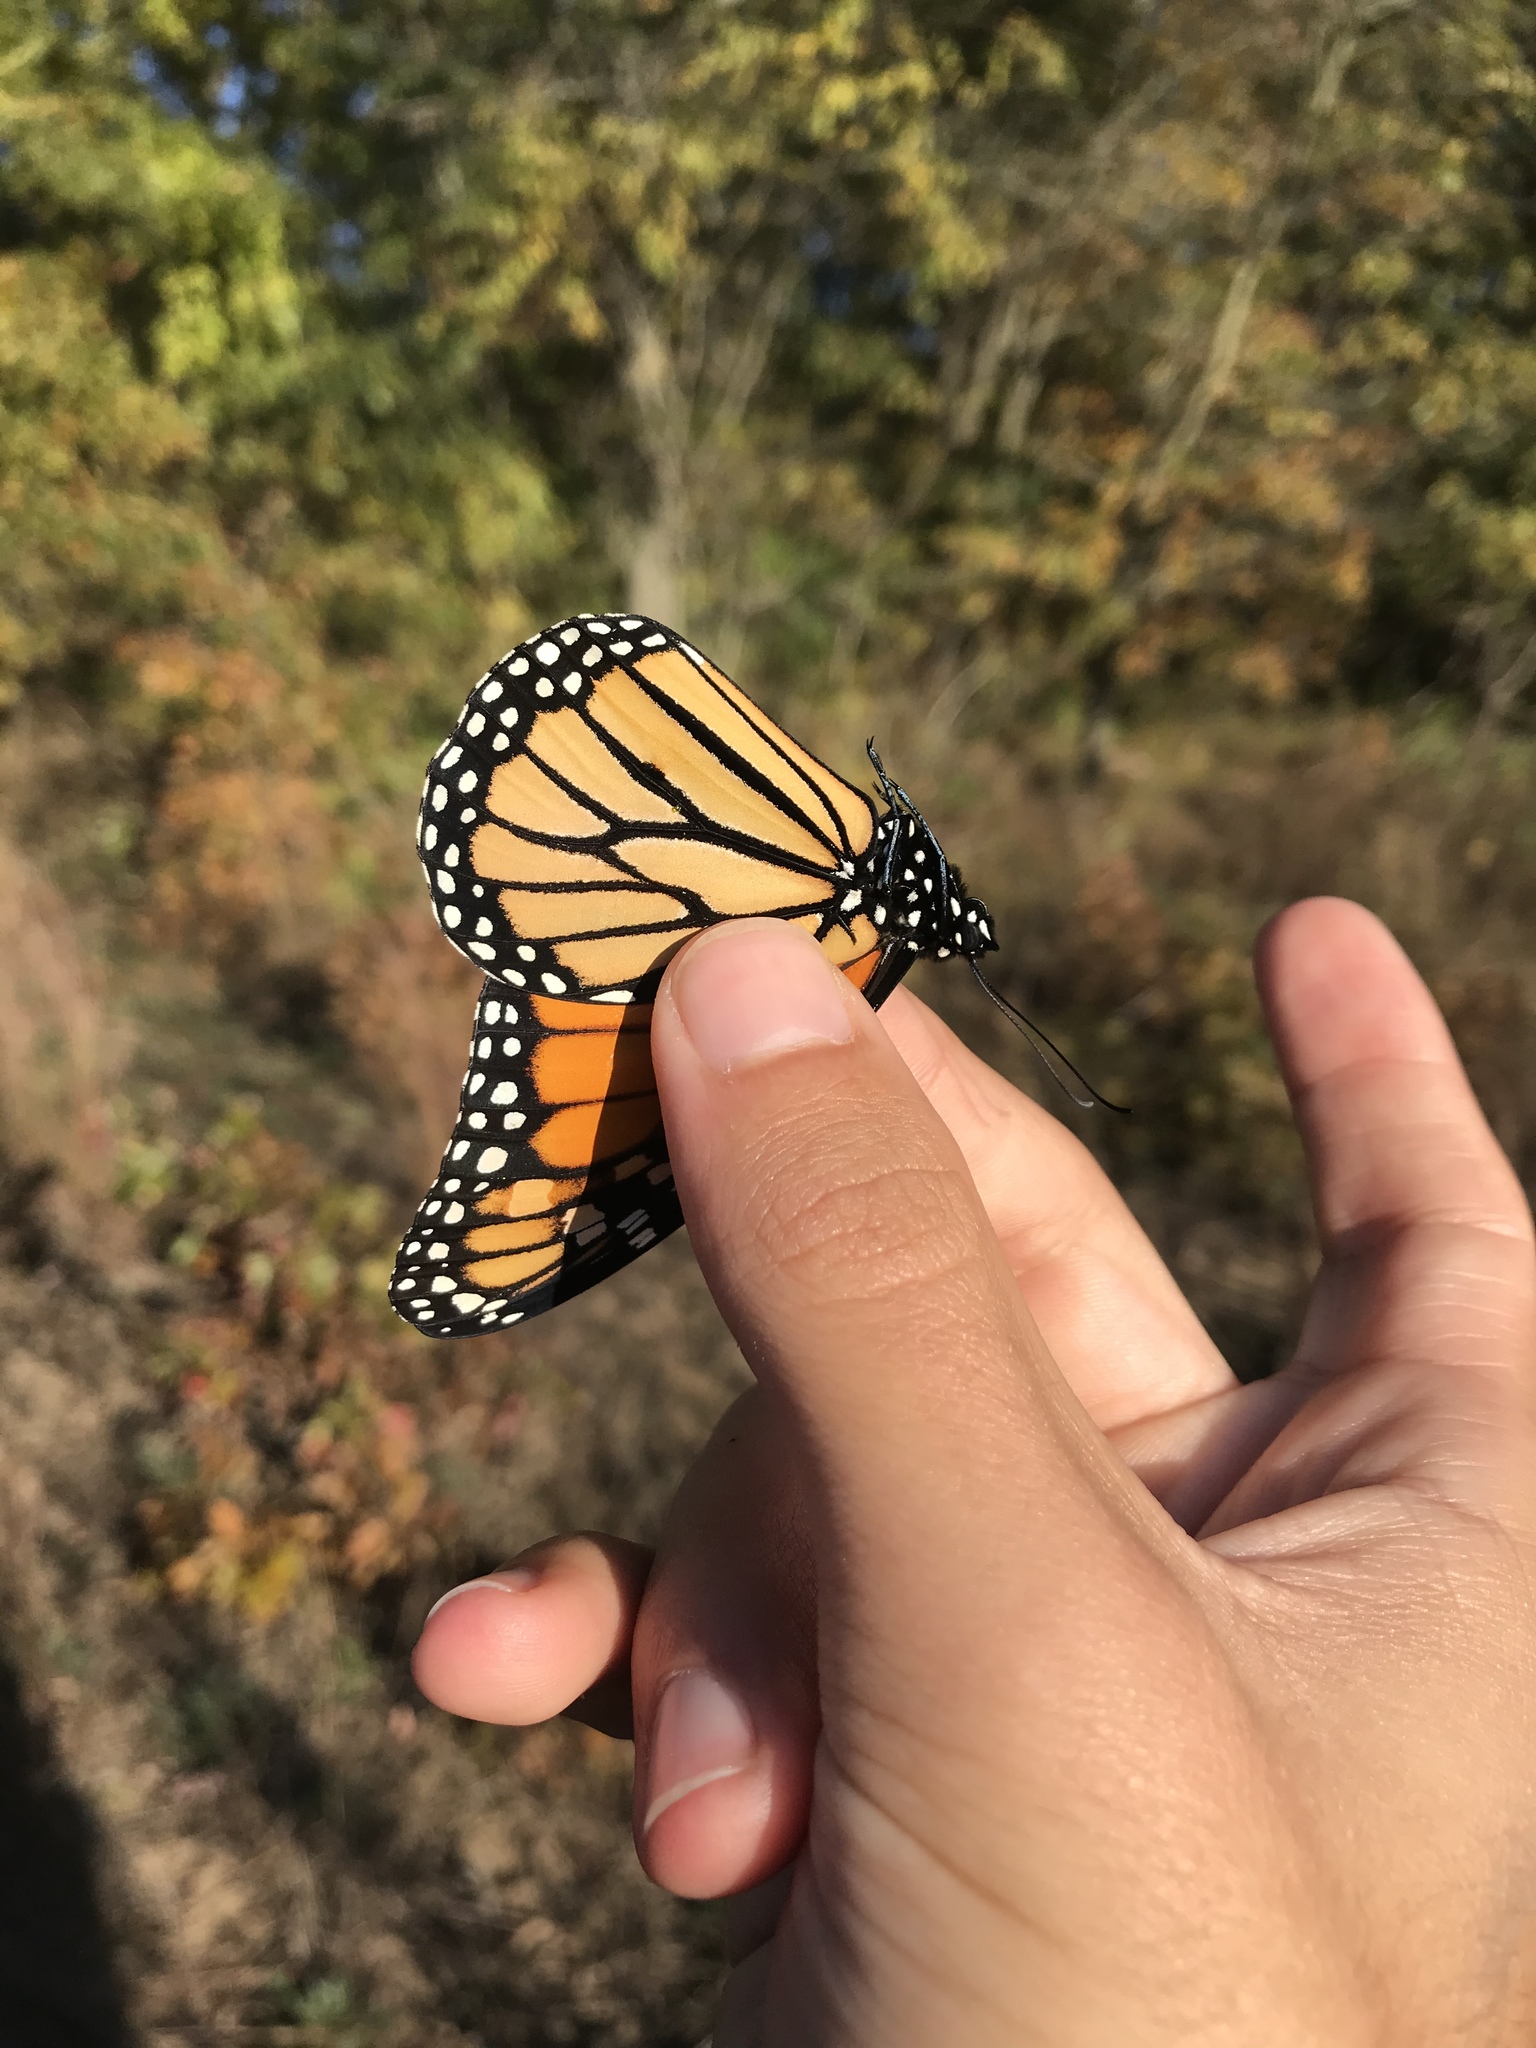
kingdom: Animalia
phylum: Arthropoda
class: Insecta
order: Lepidoptera
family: Nymphalidae
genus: Danaus
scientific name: Danaus plexippus
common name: Monarch
